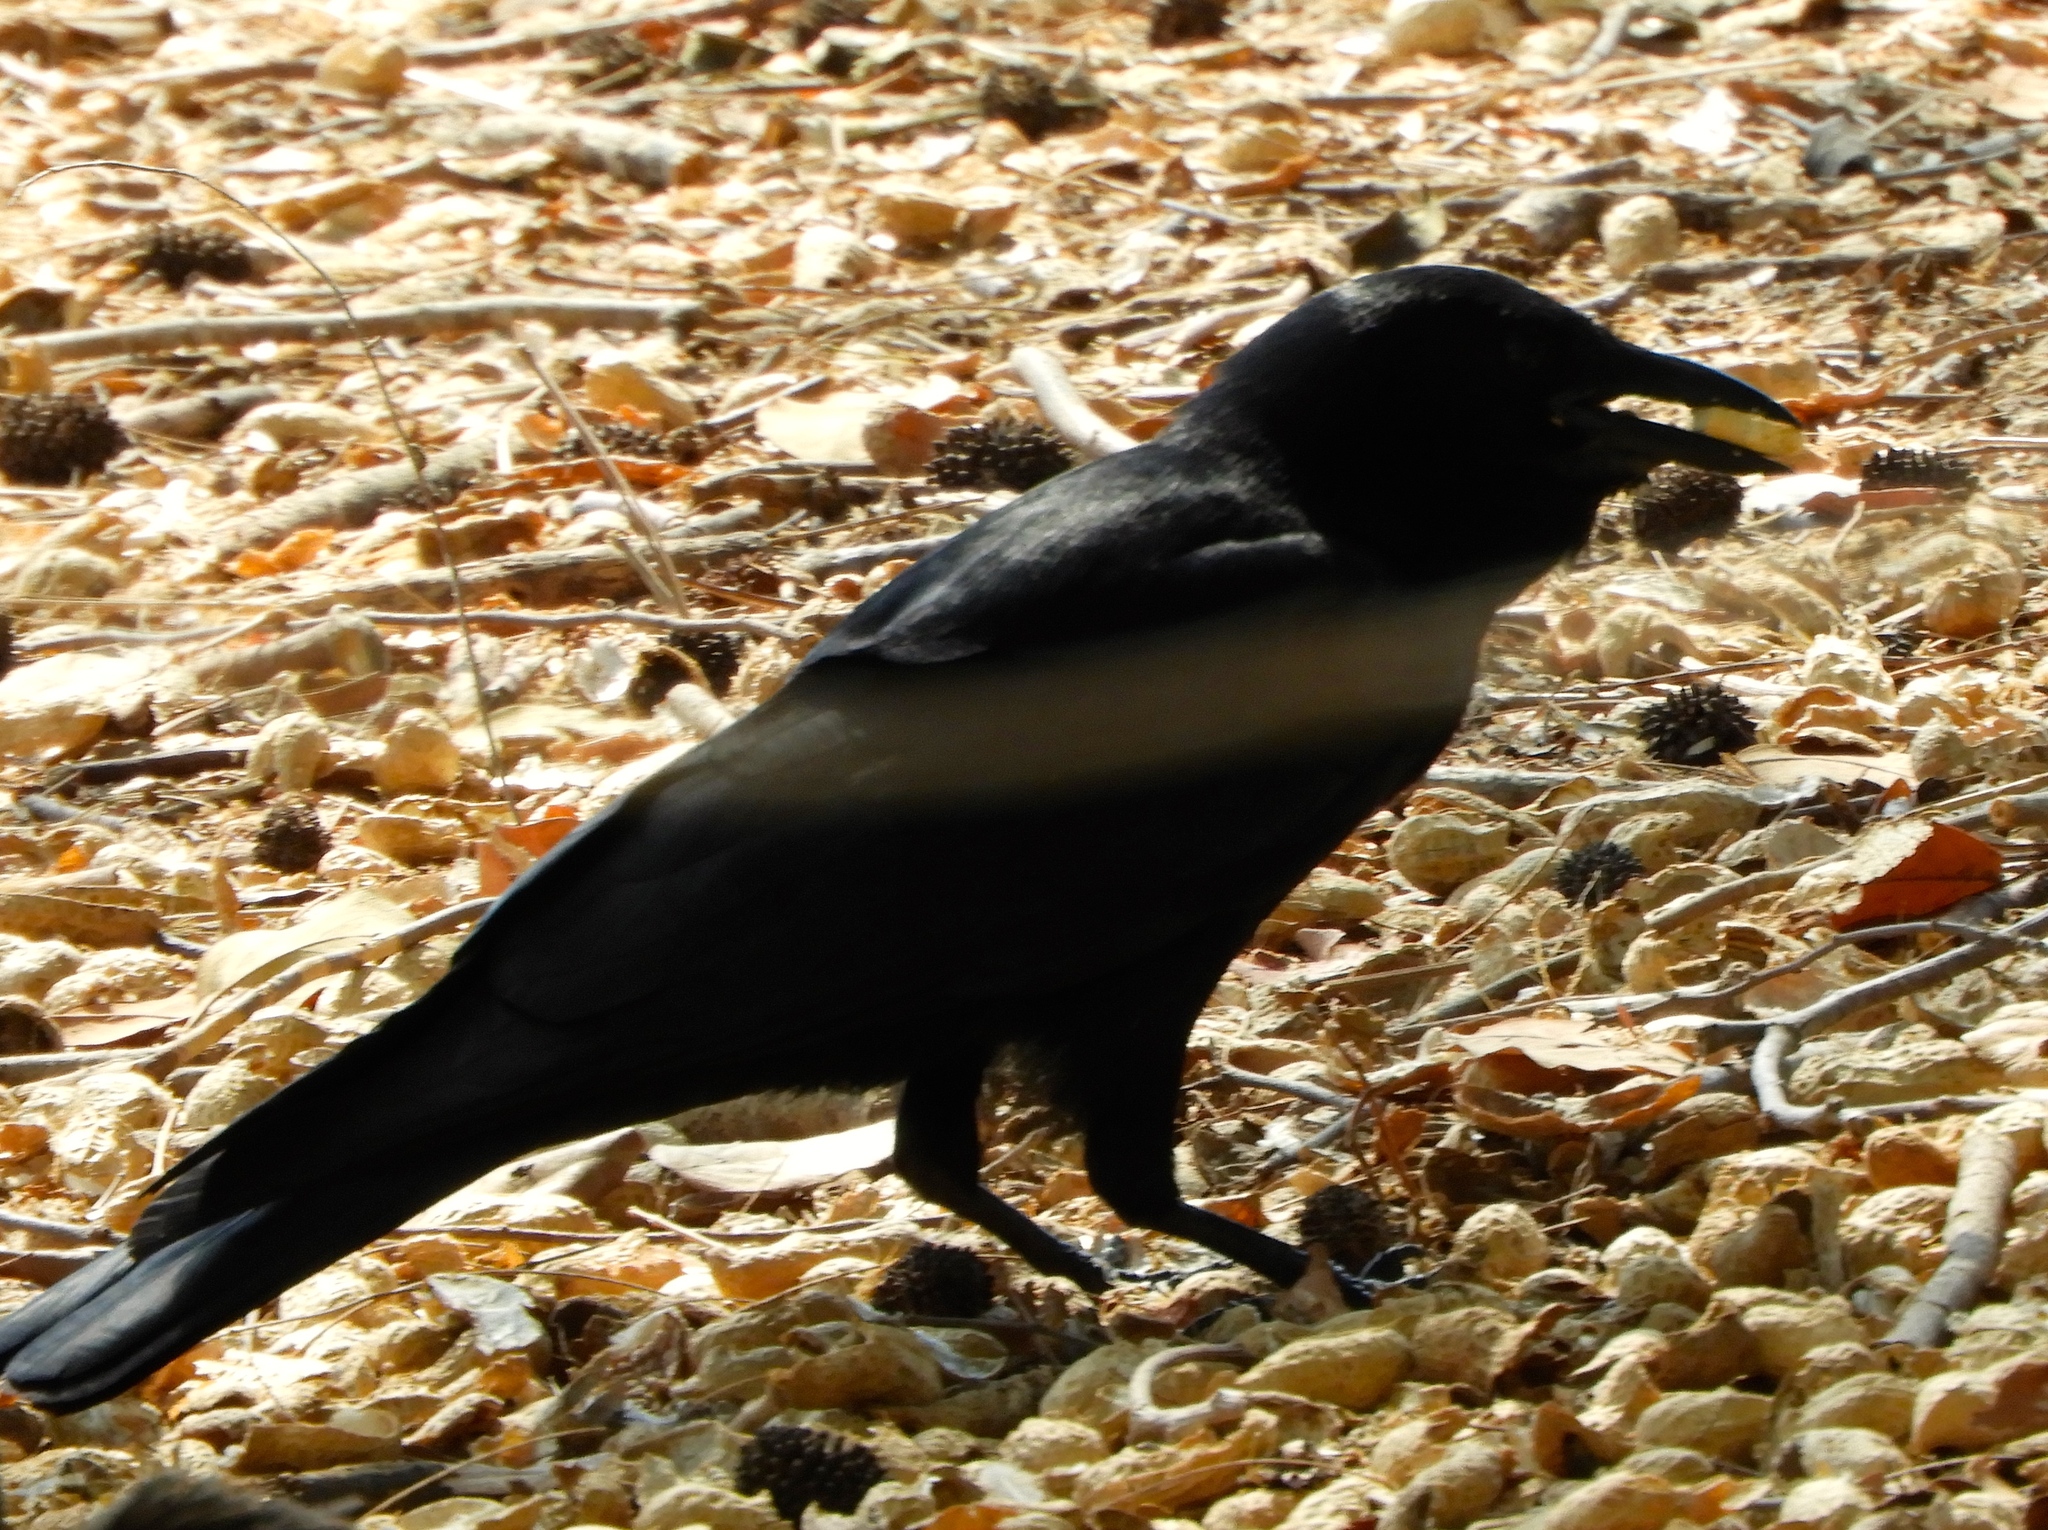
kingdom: Animalia
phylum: Chordata
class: Aves
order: Passeriformes
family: Corvidae
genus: Corvus
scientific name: Corvus sinaloae
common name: Sinaloa crow
